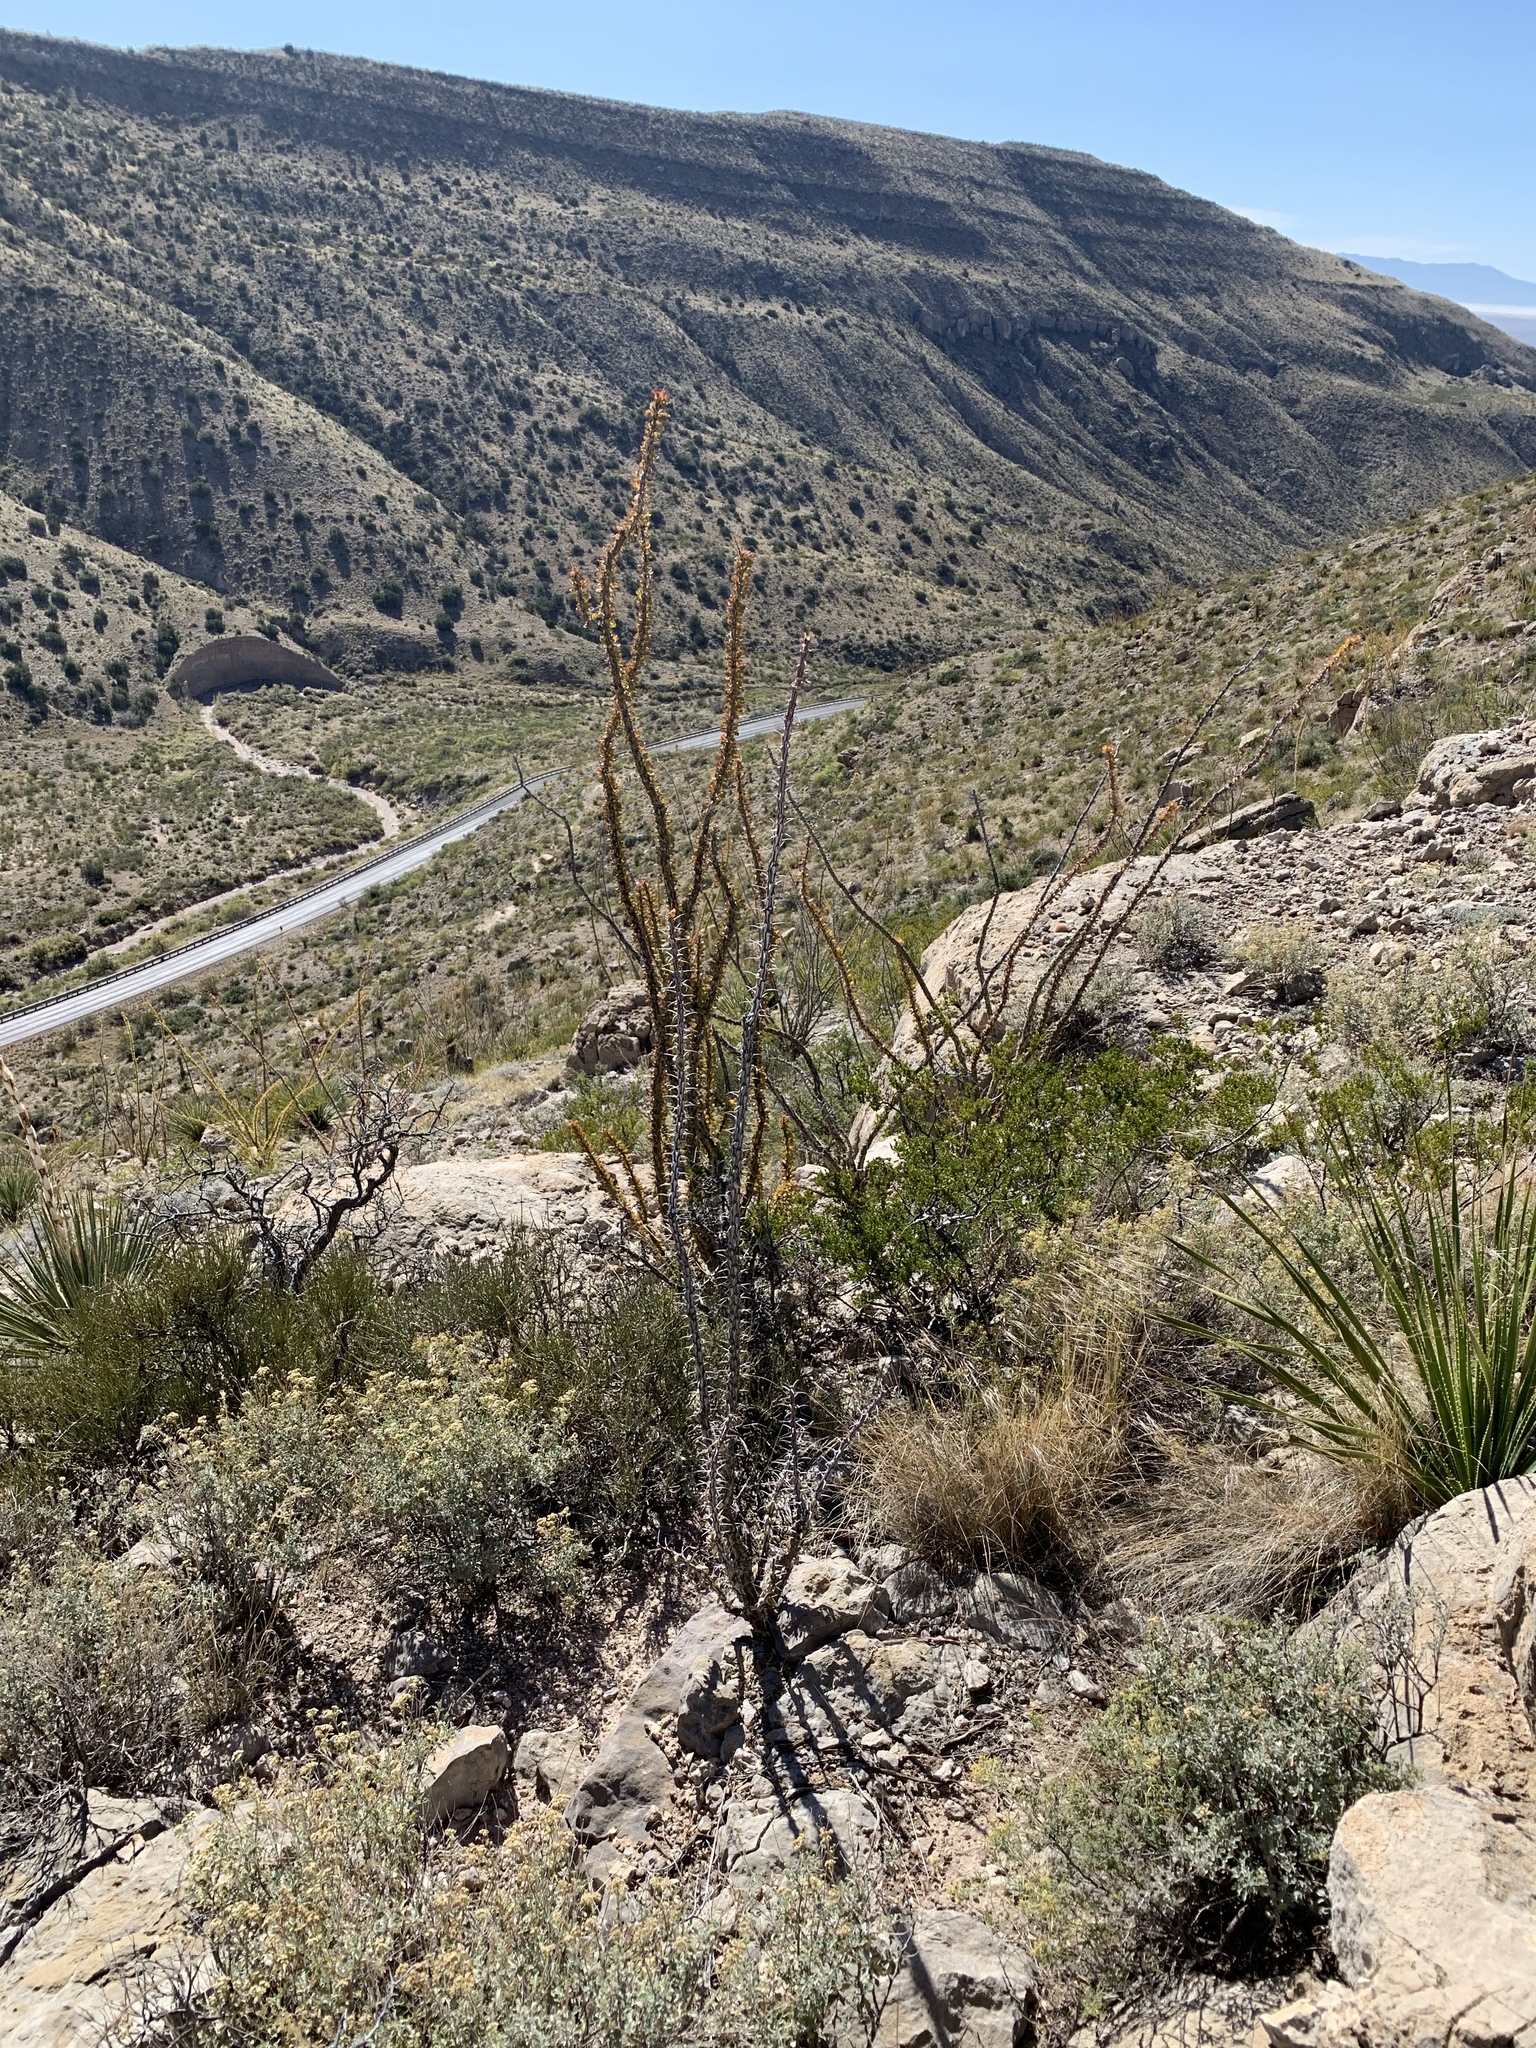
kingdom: Plantae
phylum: Tracheophyta
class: Magnoliopsida
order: Ericales
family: Fouquieriaceae
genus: Fouquieria
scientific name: Fouquieria splendens
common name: Vine-cactus
